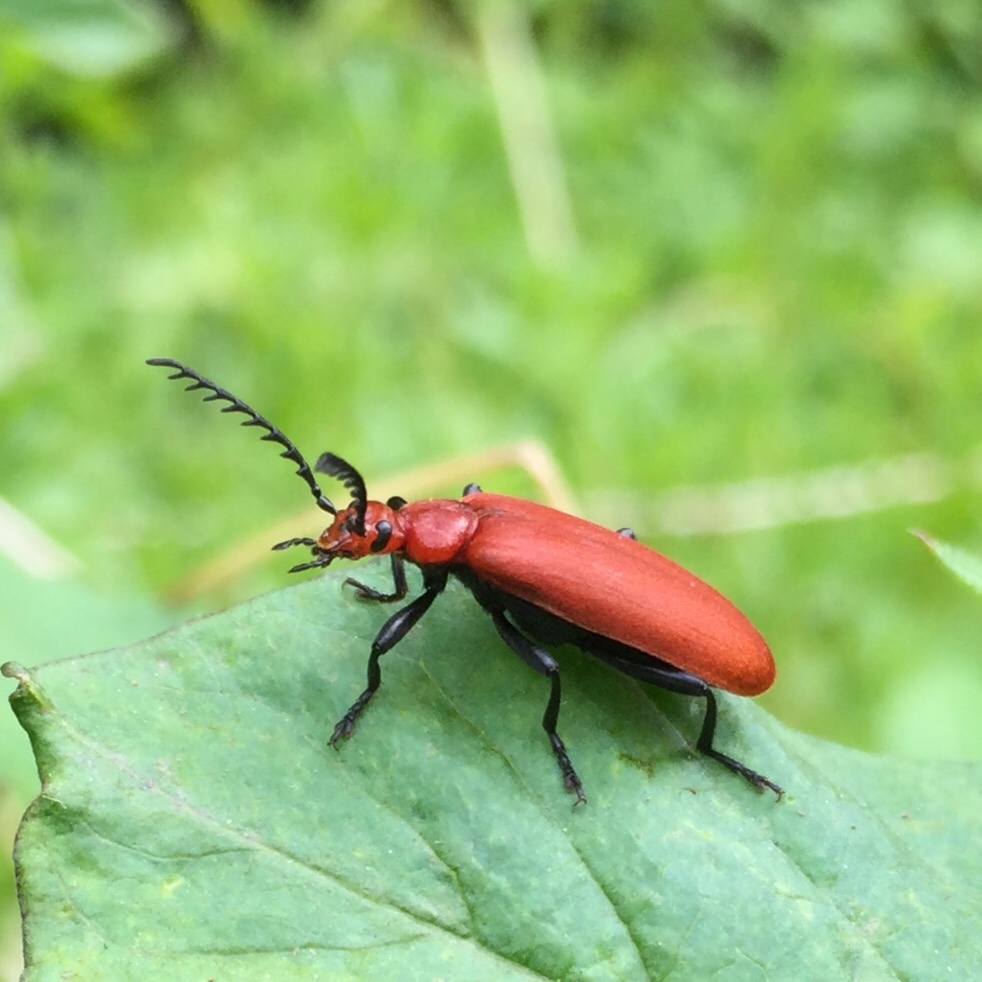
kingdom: Animalia
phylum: Arthropoda
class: Insecta
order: Coleoptera
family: Pyrochroidae
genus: Pyrochroa
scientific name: Pyrochroa serraticornis
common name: Red-headed cardinal beetle
